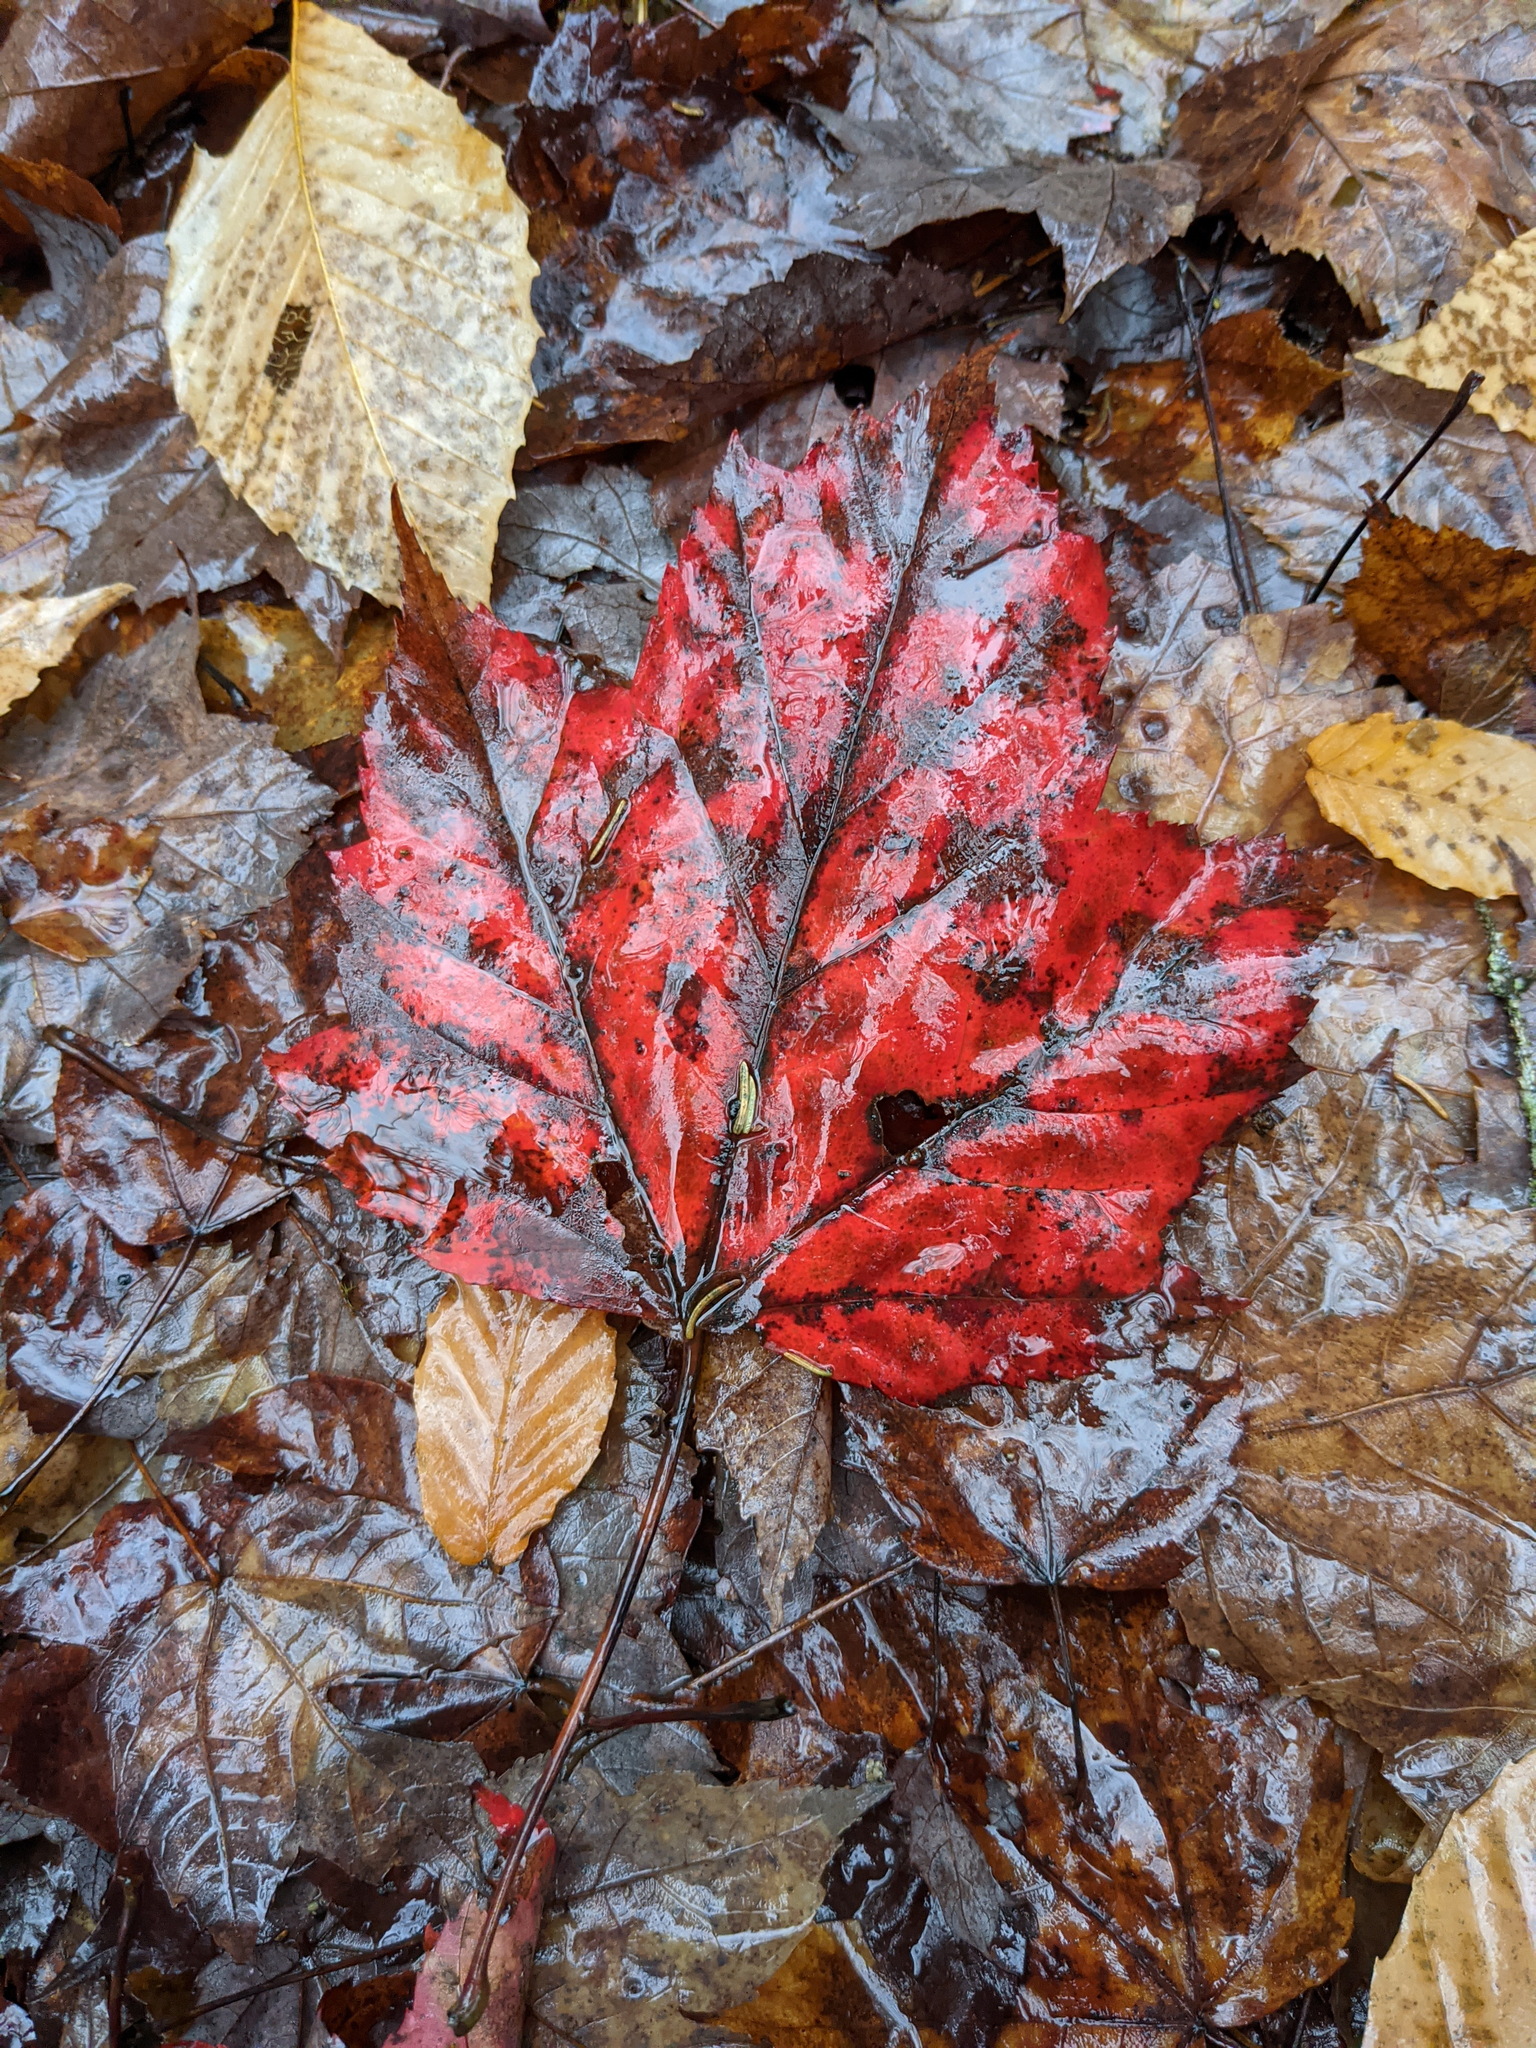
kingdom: Plantae
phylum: Tracheophyta
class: Magnoliopsida
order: Sapindales
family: Sapindaceae
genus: Acer
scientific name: Acer rubrum
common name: Red maple
